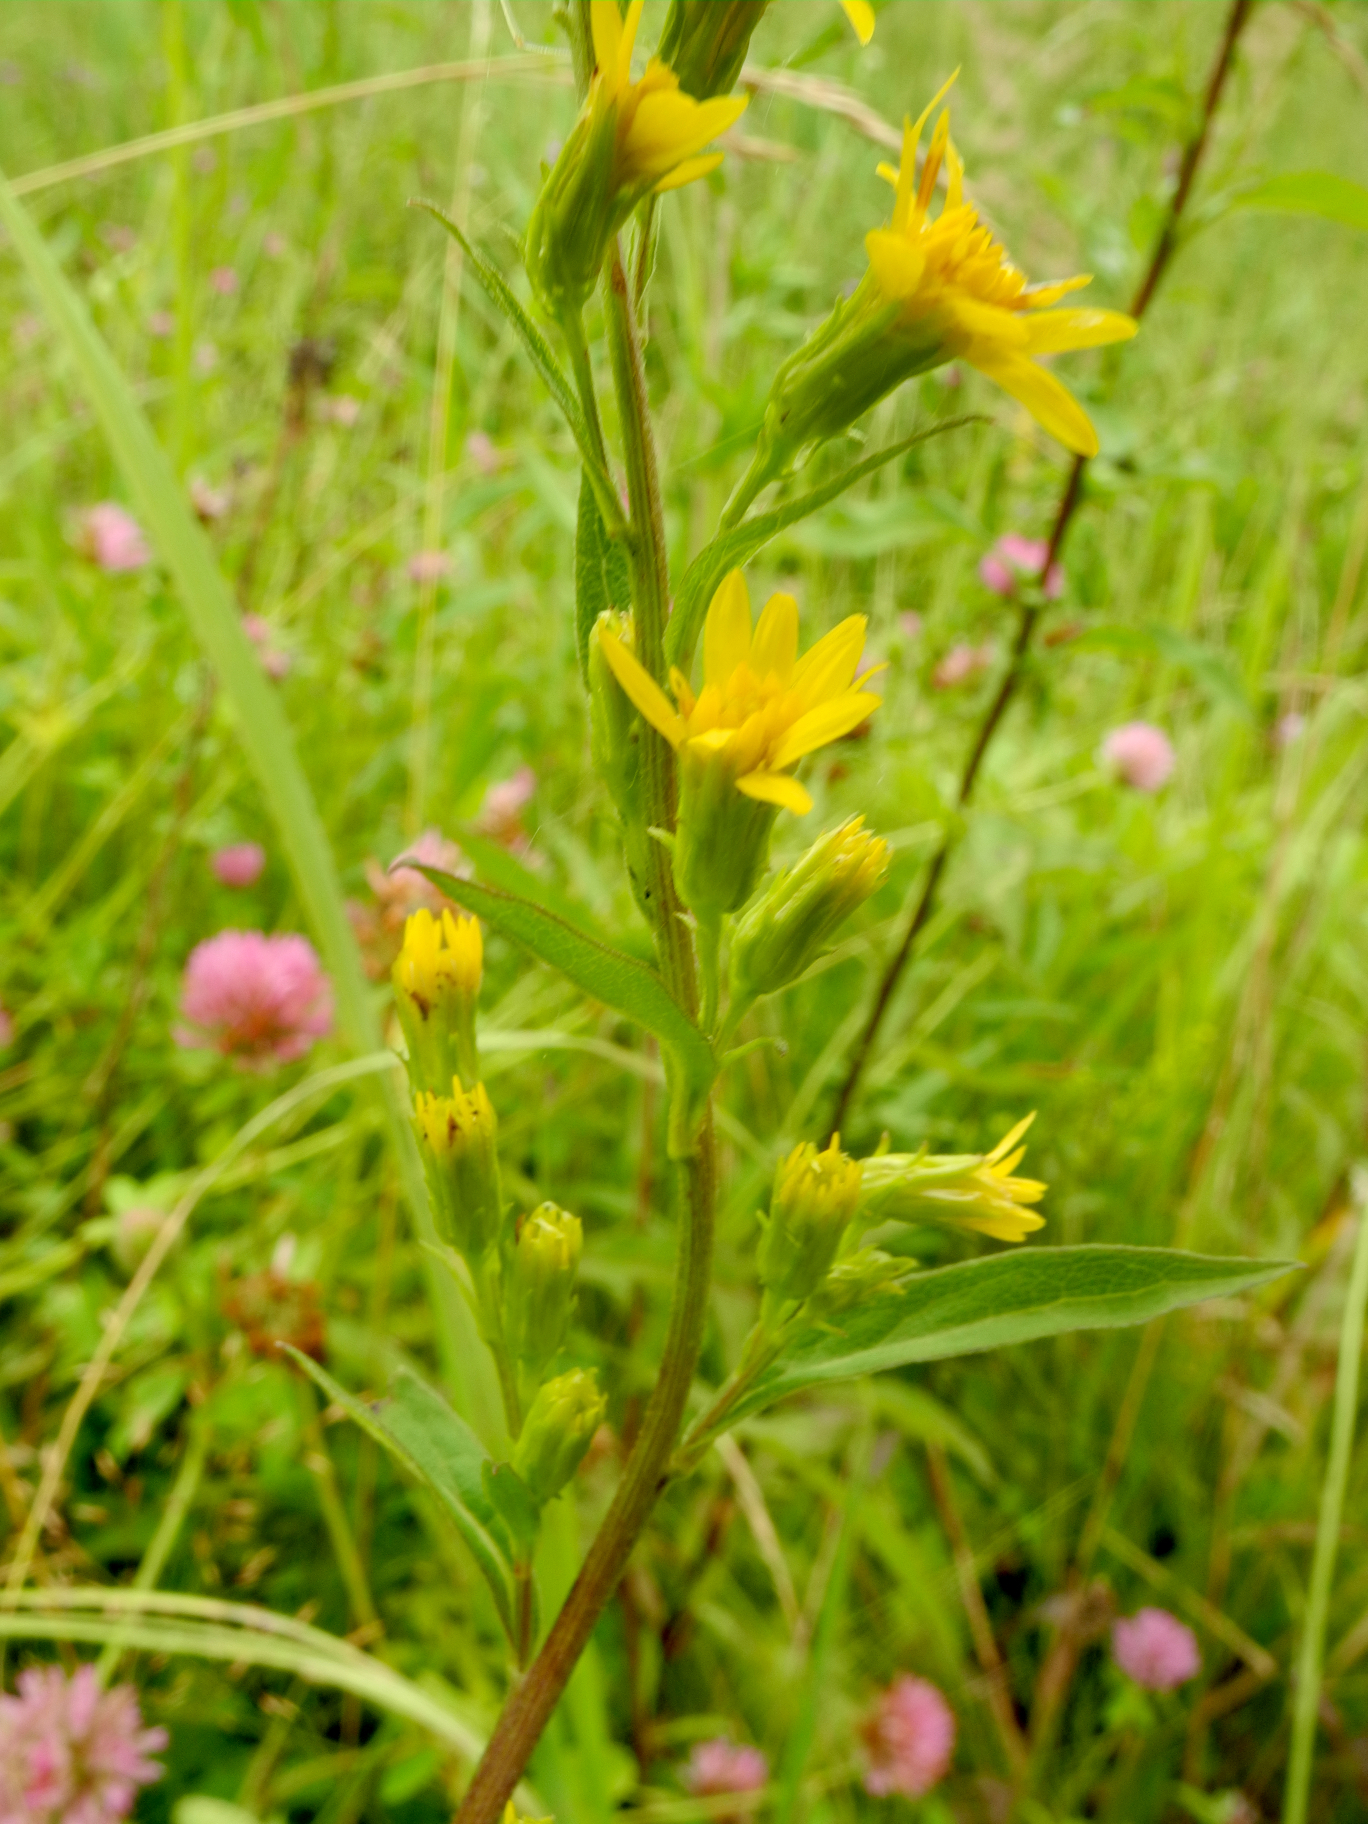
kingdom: Plantae
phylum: Tracheophyta
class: Magnoliopsida
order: Asterales
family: Asteraceae
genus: Solidago
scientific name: Solidago virgaurea
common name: Goldenrod
